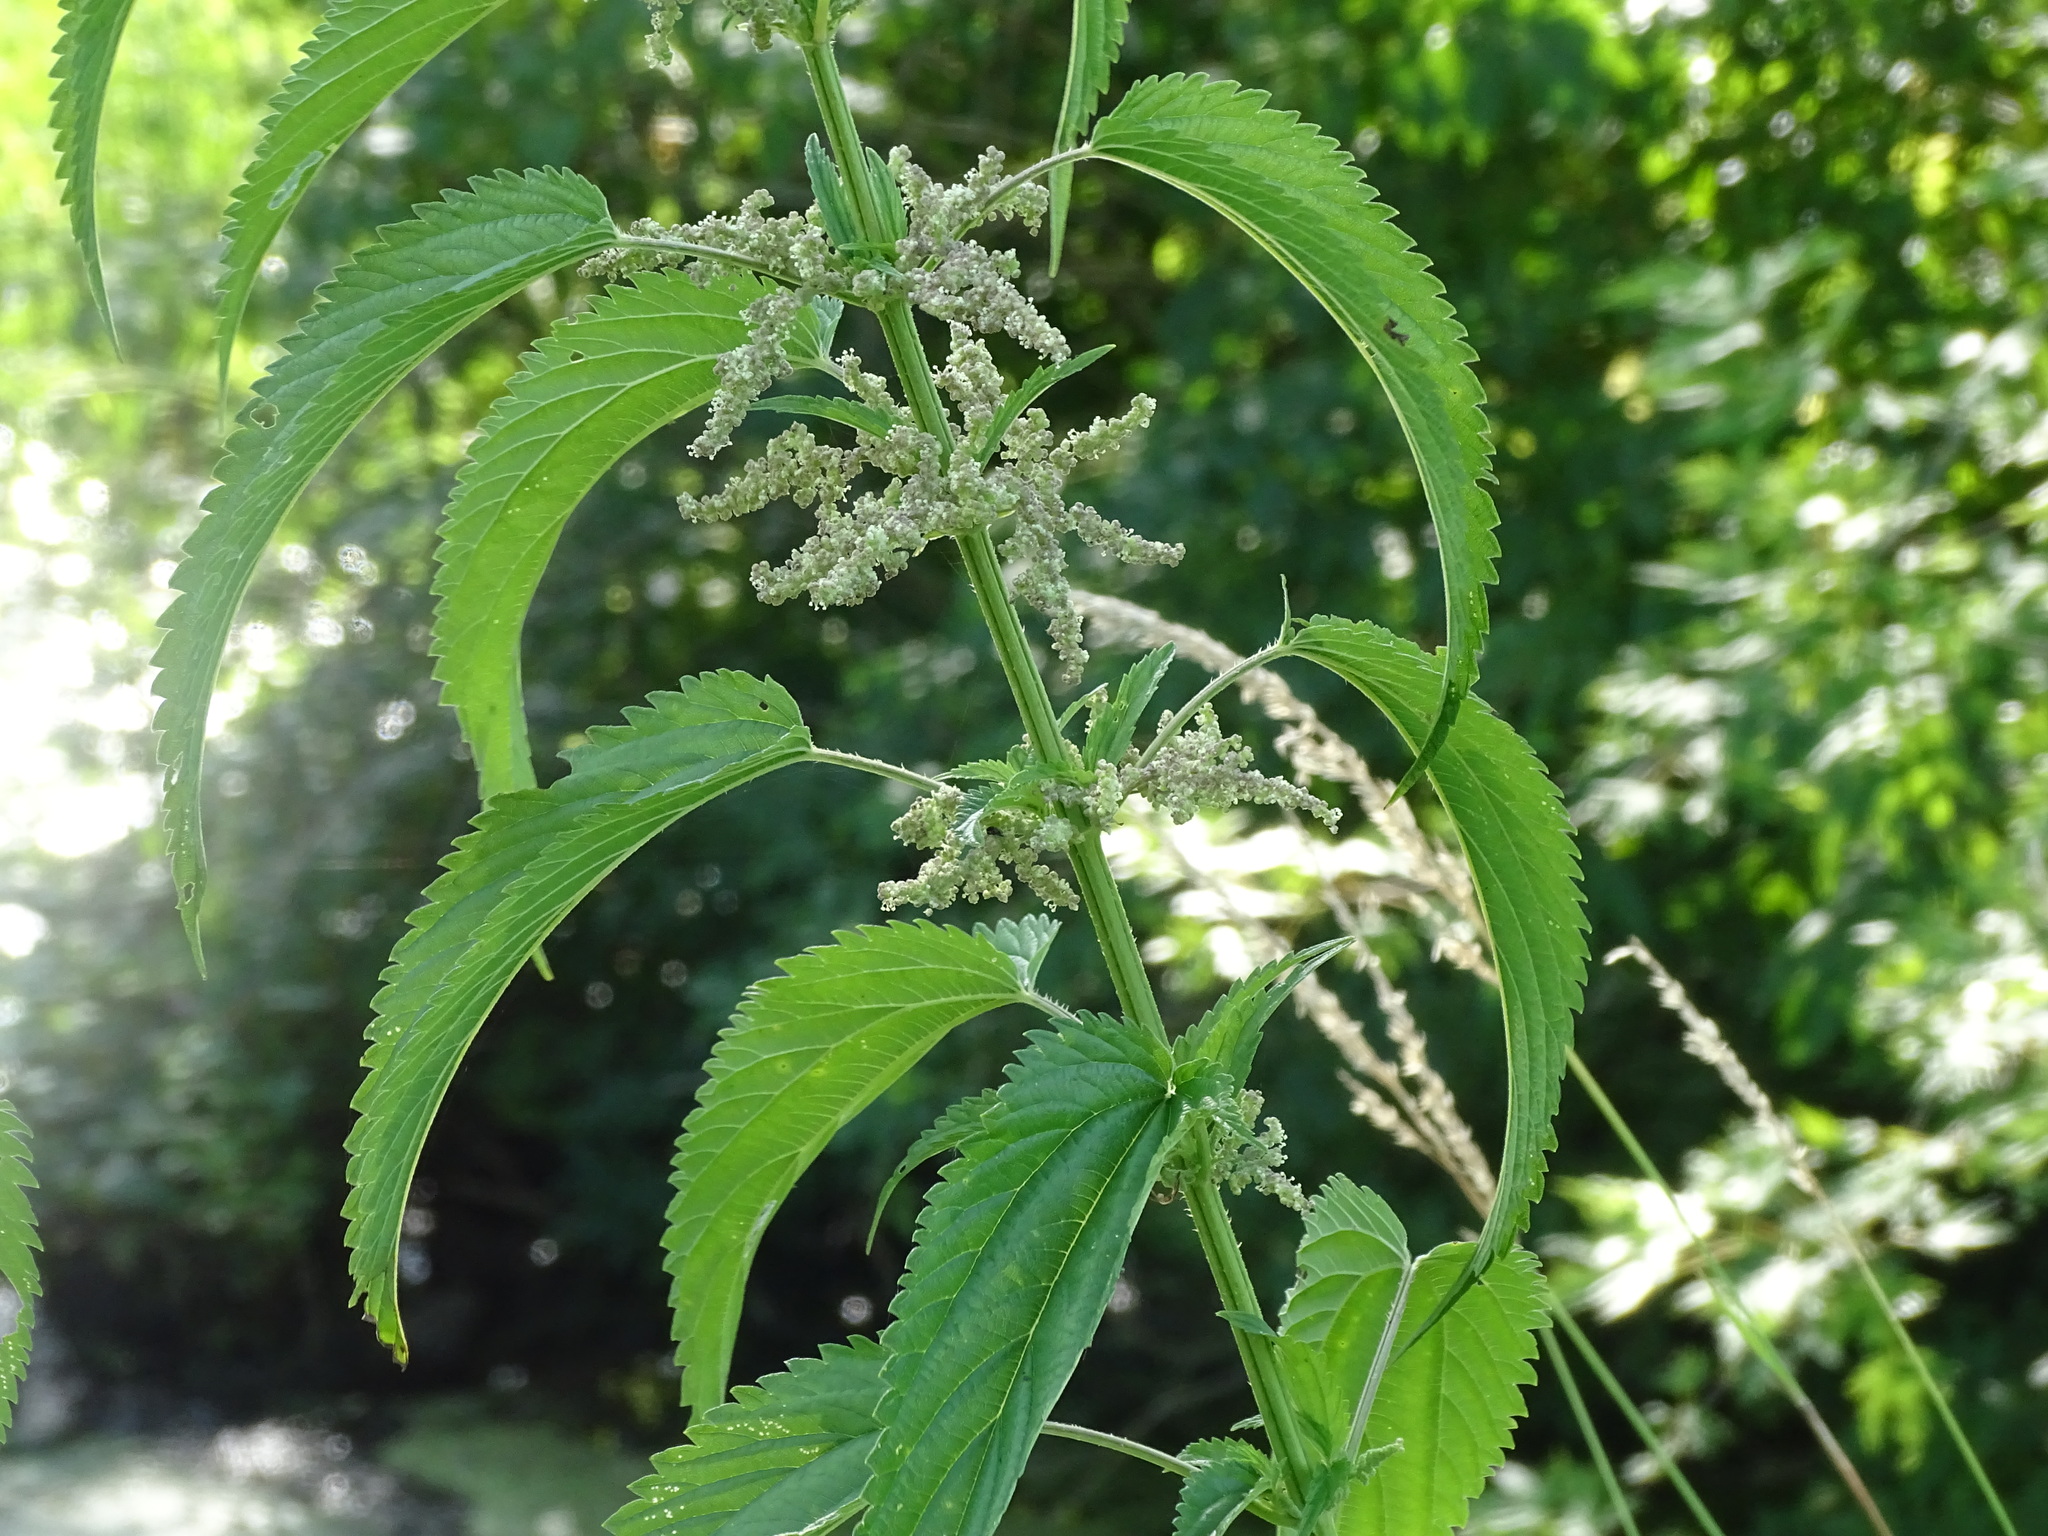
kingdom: Plantae
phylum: Tracheophyta
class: Magnoliopsida
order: Rosales
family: Urticaceae
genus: Urtica
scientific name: Urtica dioica
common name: Common nettle
